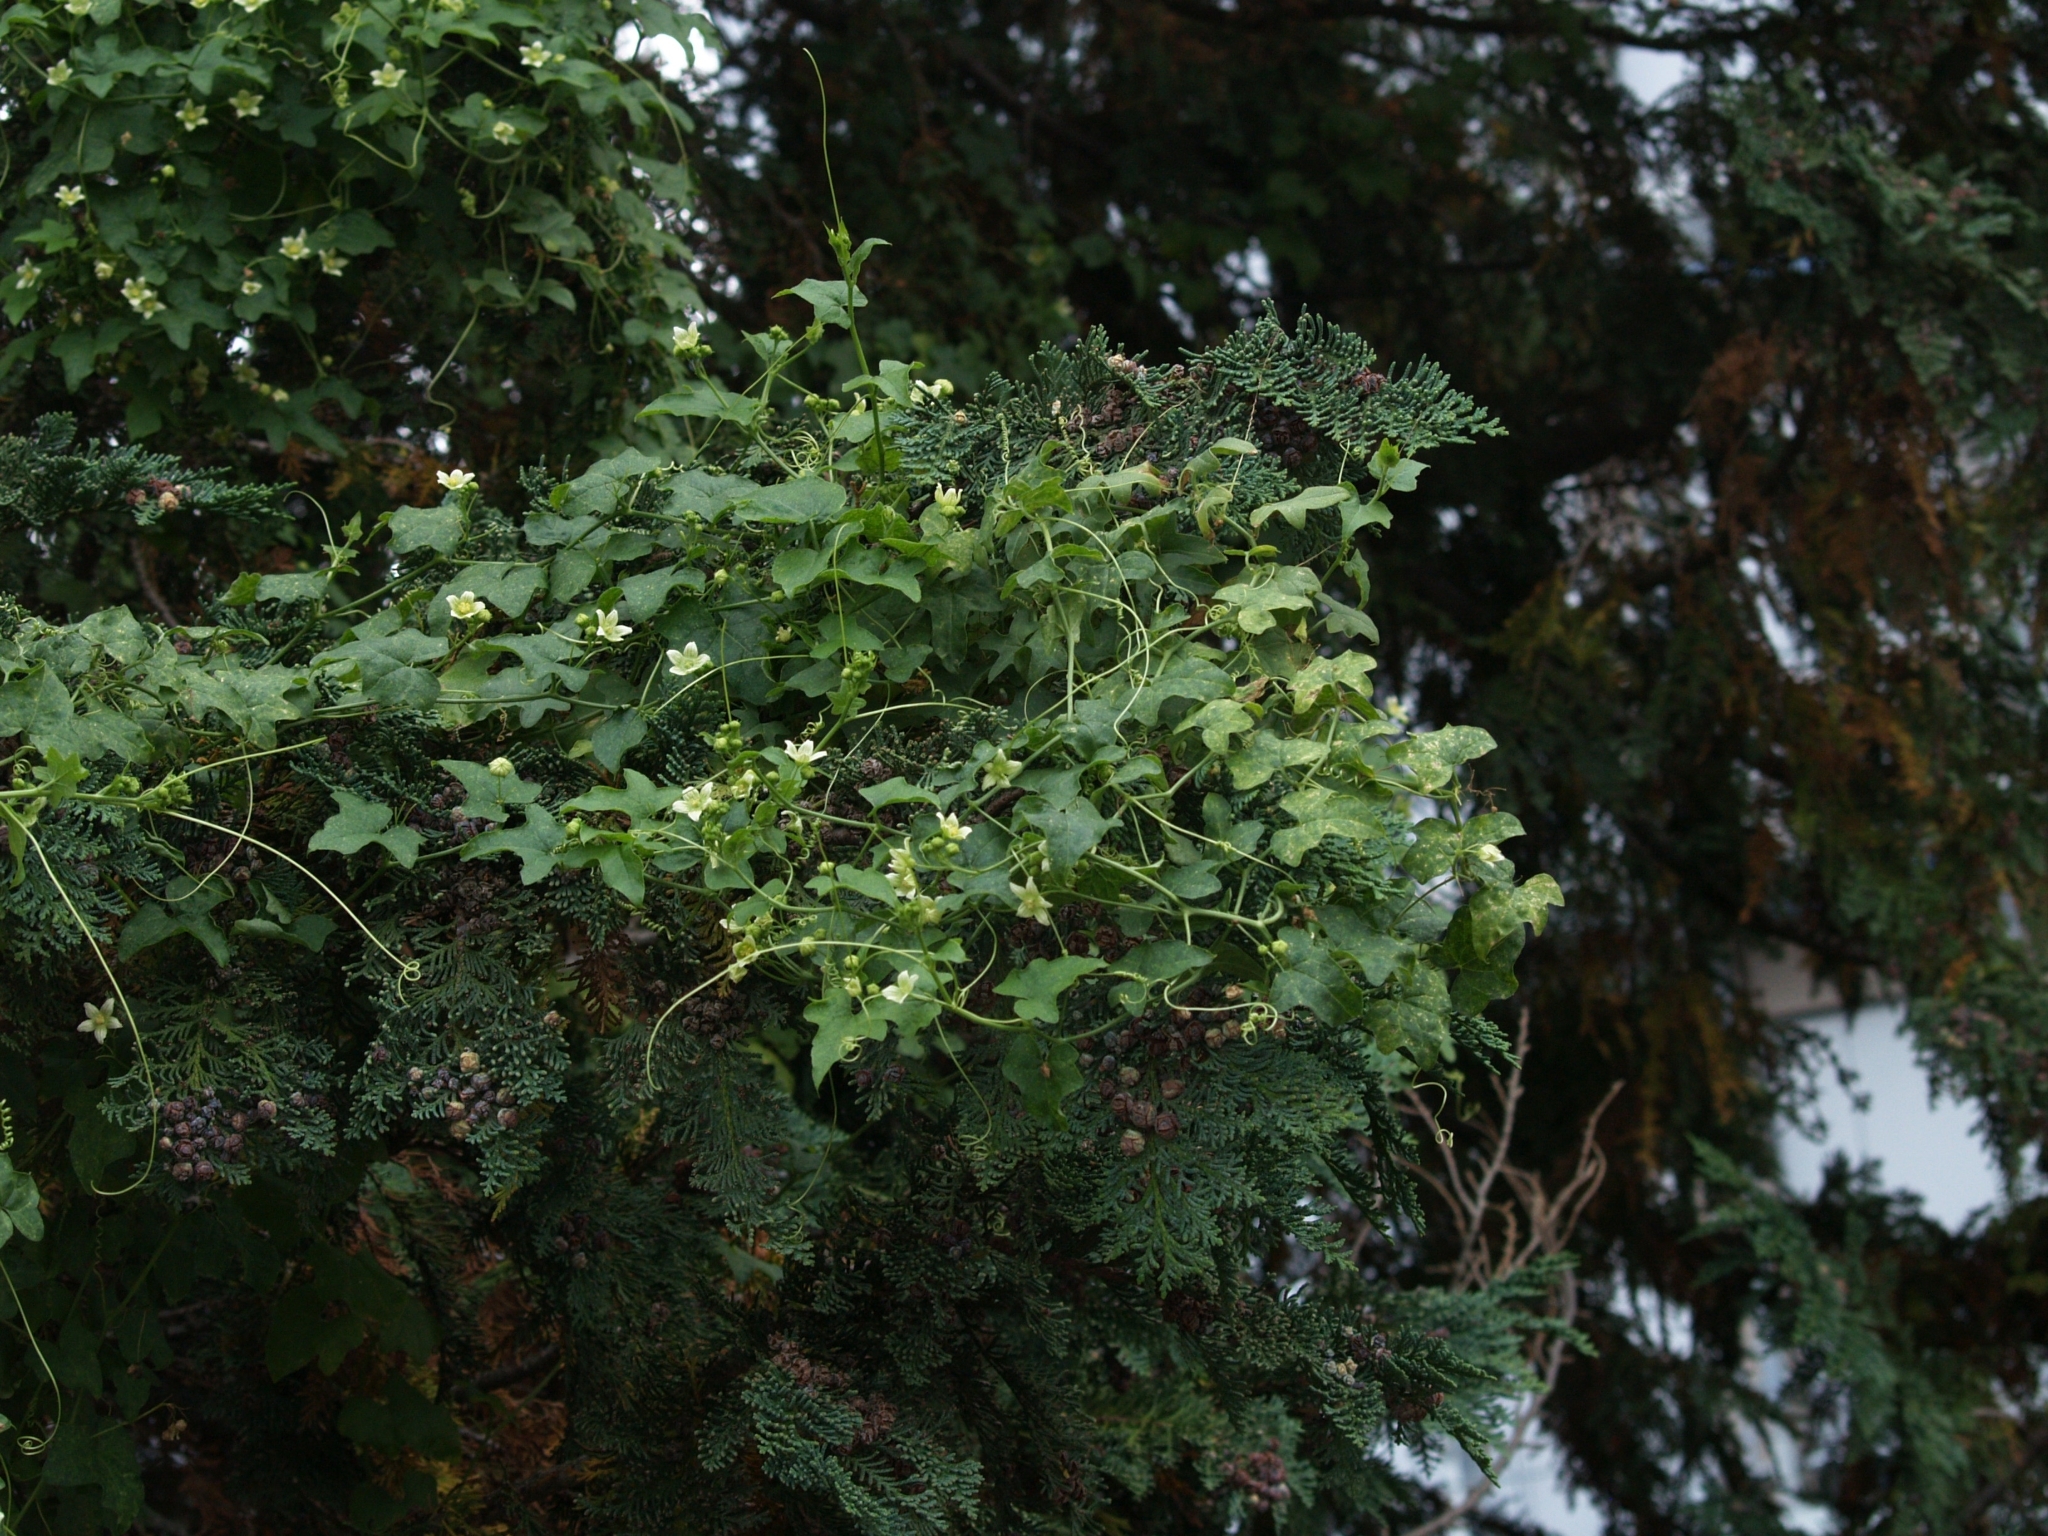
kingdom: Plantae
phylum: Tracheophyta
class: Magnoliopsida
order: Cucurbitales
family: Cucurbitaceae
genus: Bryonia
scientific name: Bryonia dioica
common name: White bryony
